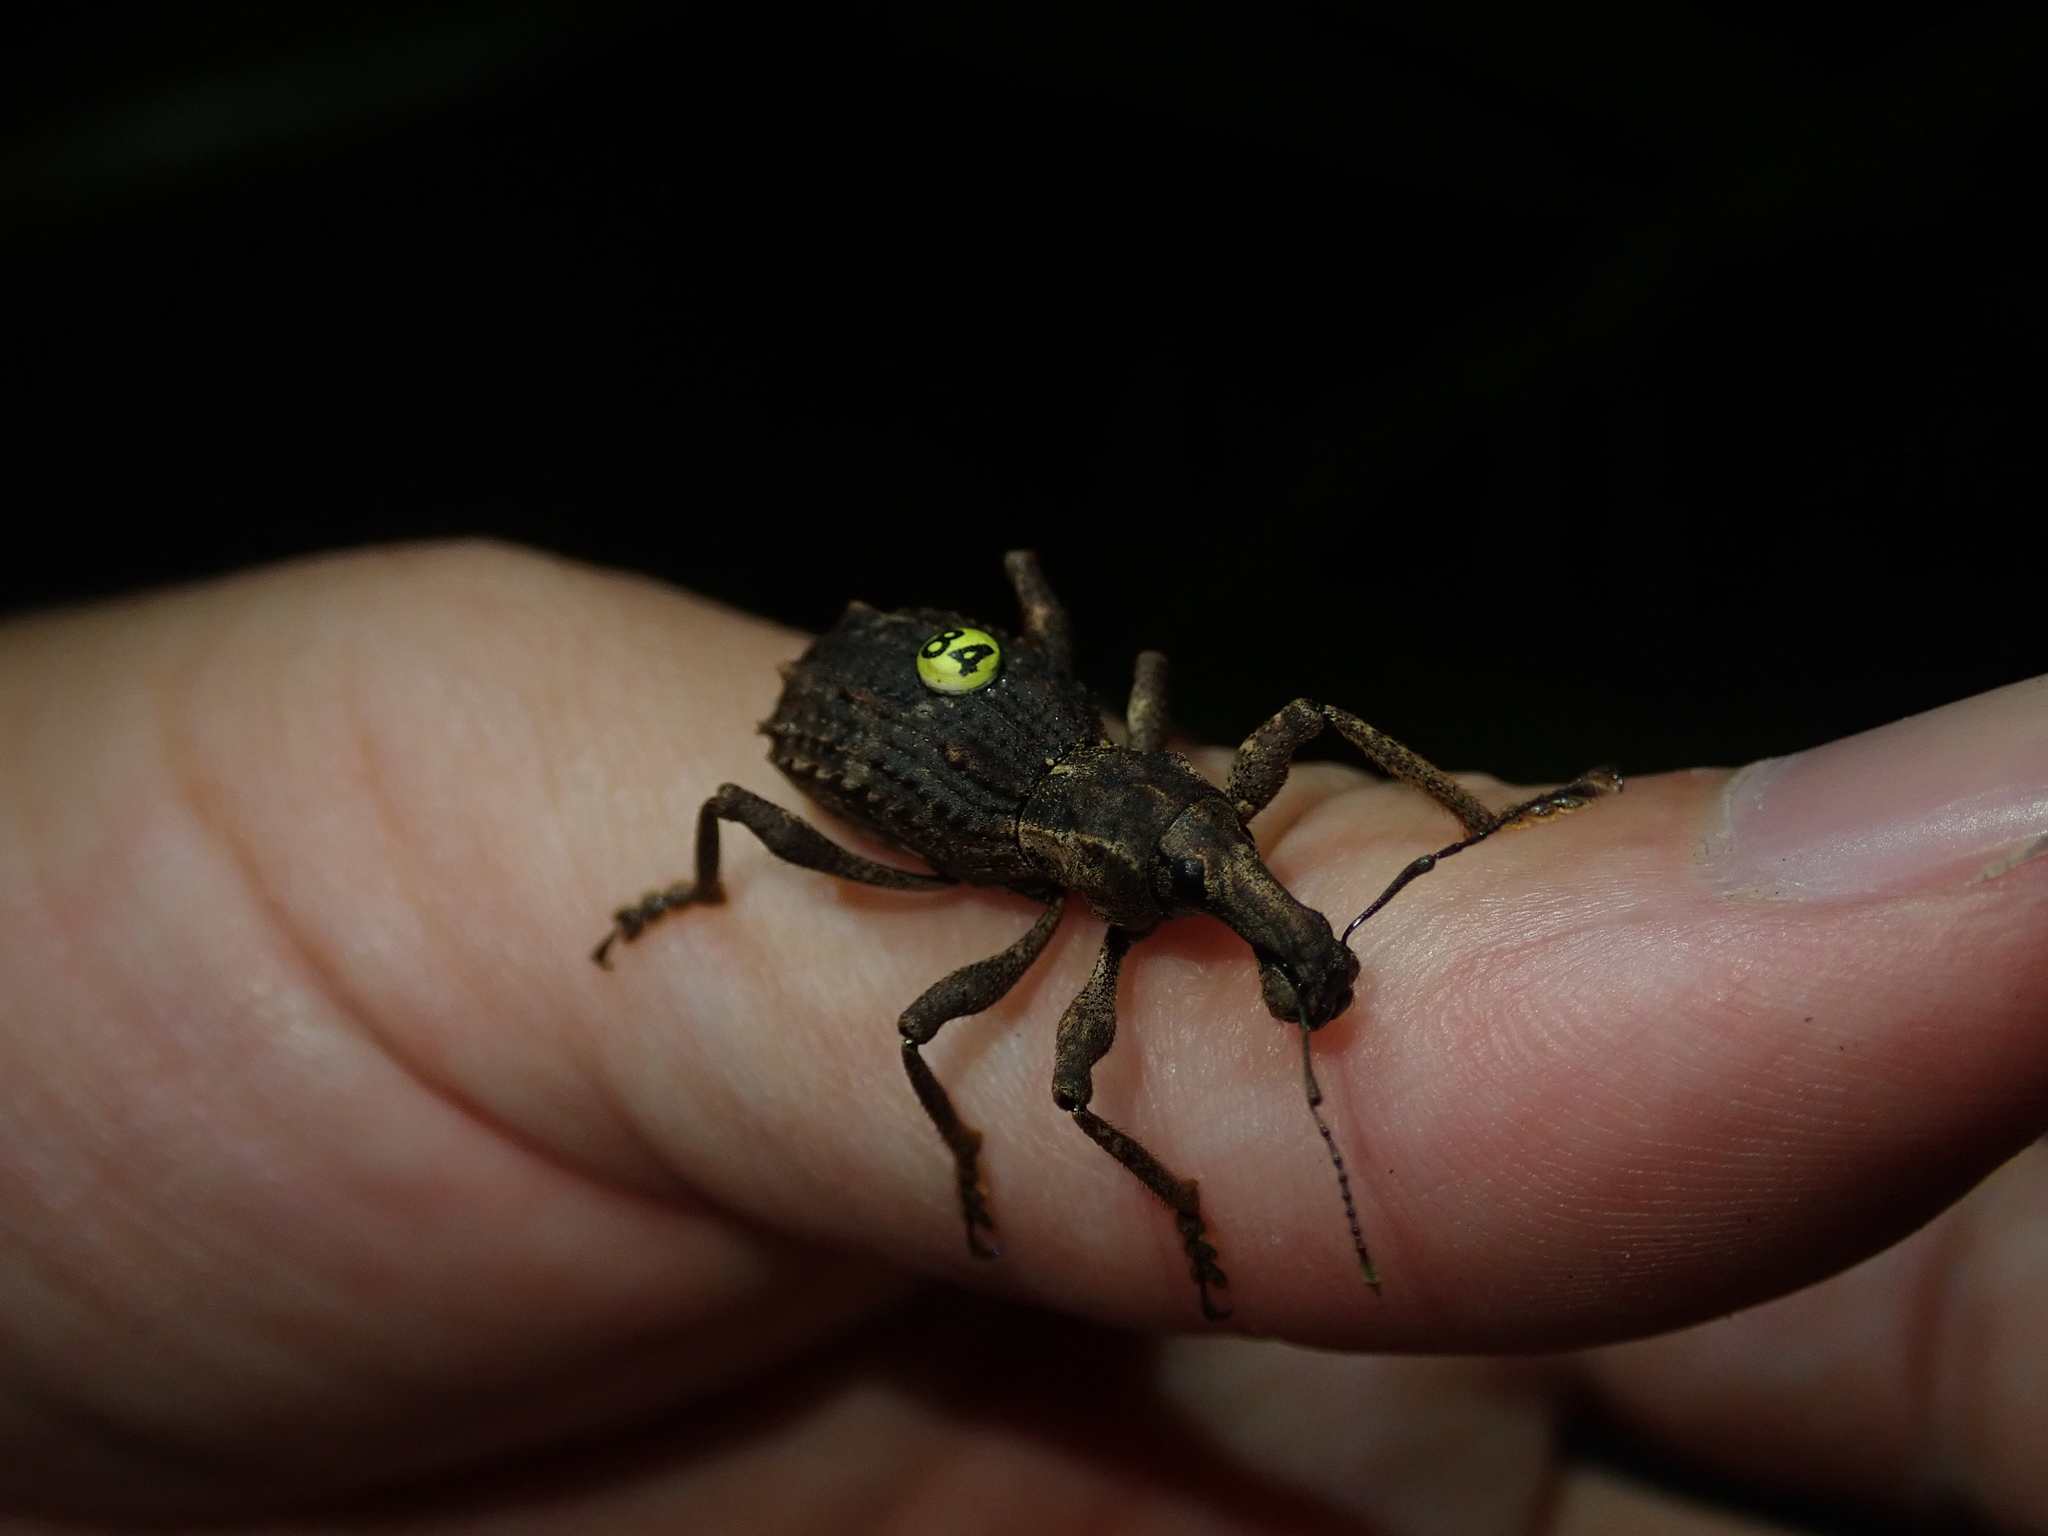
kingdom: Animalia
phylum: Arthropoda
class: Insecta
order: Coleoptera
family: Curculionidae
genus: Anagotus
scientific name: Anagotus fairburni
